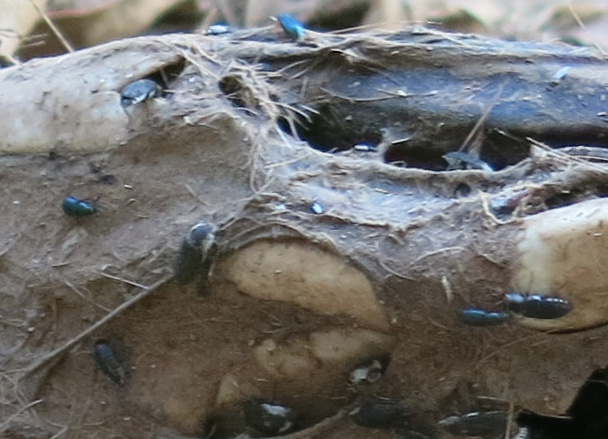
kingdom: Animalia
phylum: Arthropoda
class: Insecta
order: Coleoptera
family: Dermestidae
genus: Dermestes
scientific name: Dermestes maculatus
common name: Hide beetle
